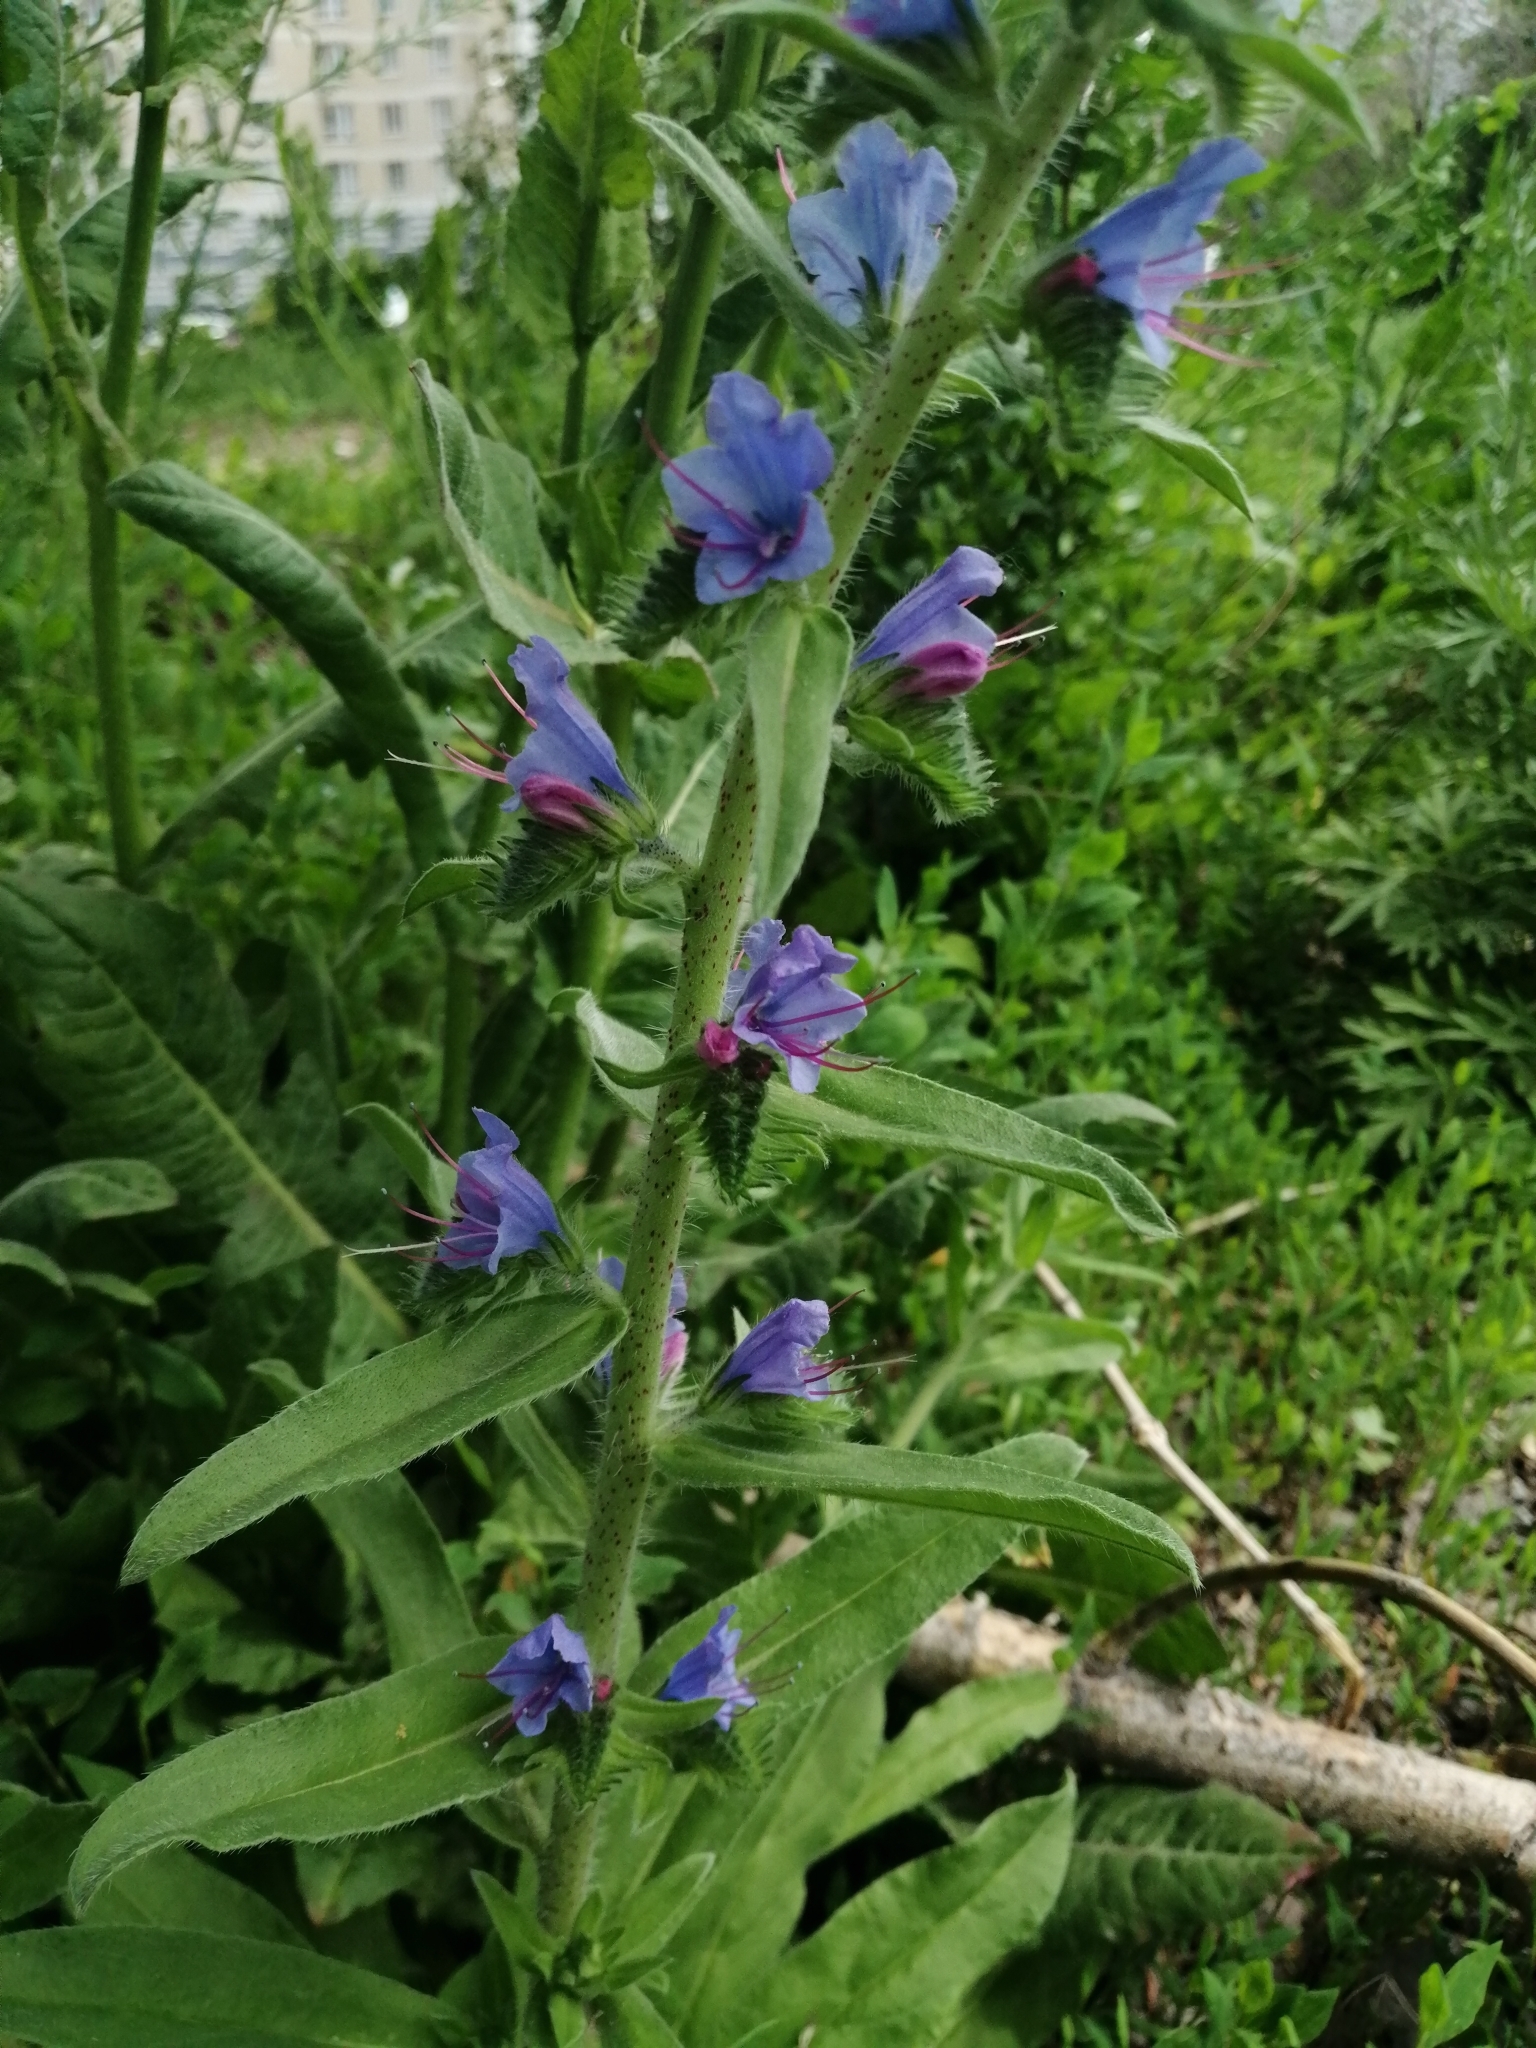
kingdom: Plantae
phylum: Tracheophyta
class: Magnoliopsida
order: Boraginales
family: Boraginaceae
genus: Echium
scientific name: Echium vulgare
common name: Common viper's bugloss
